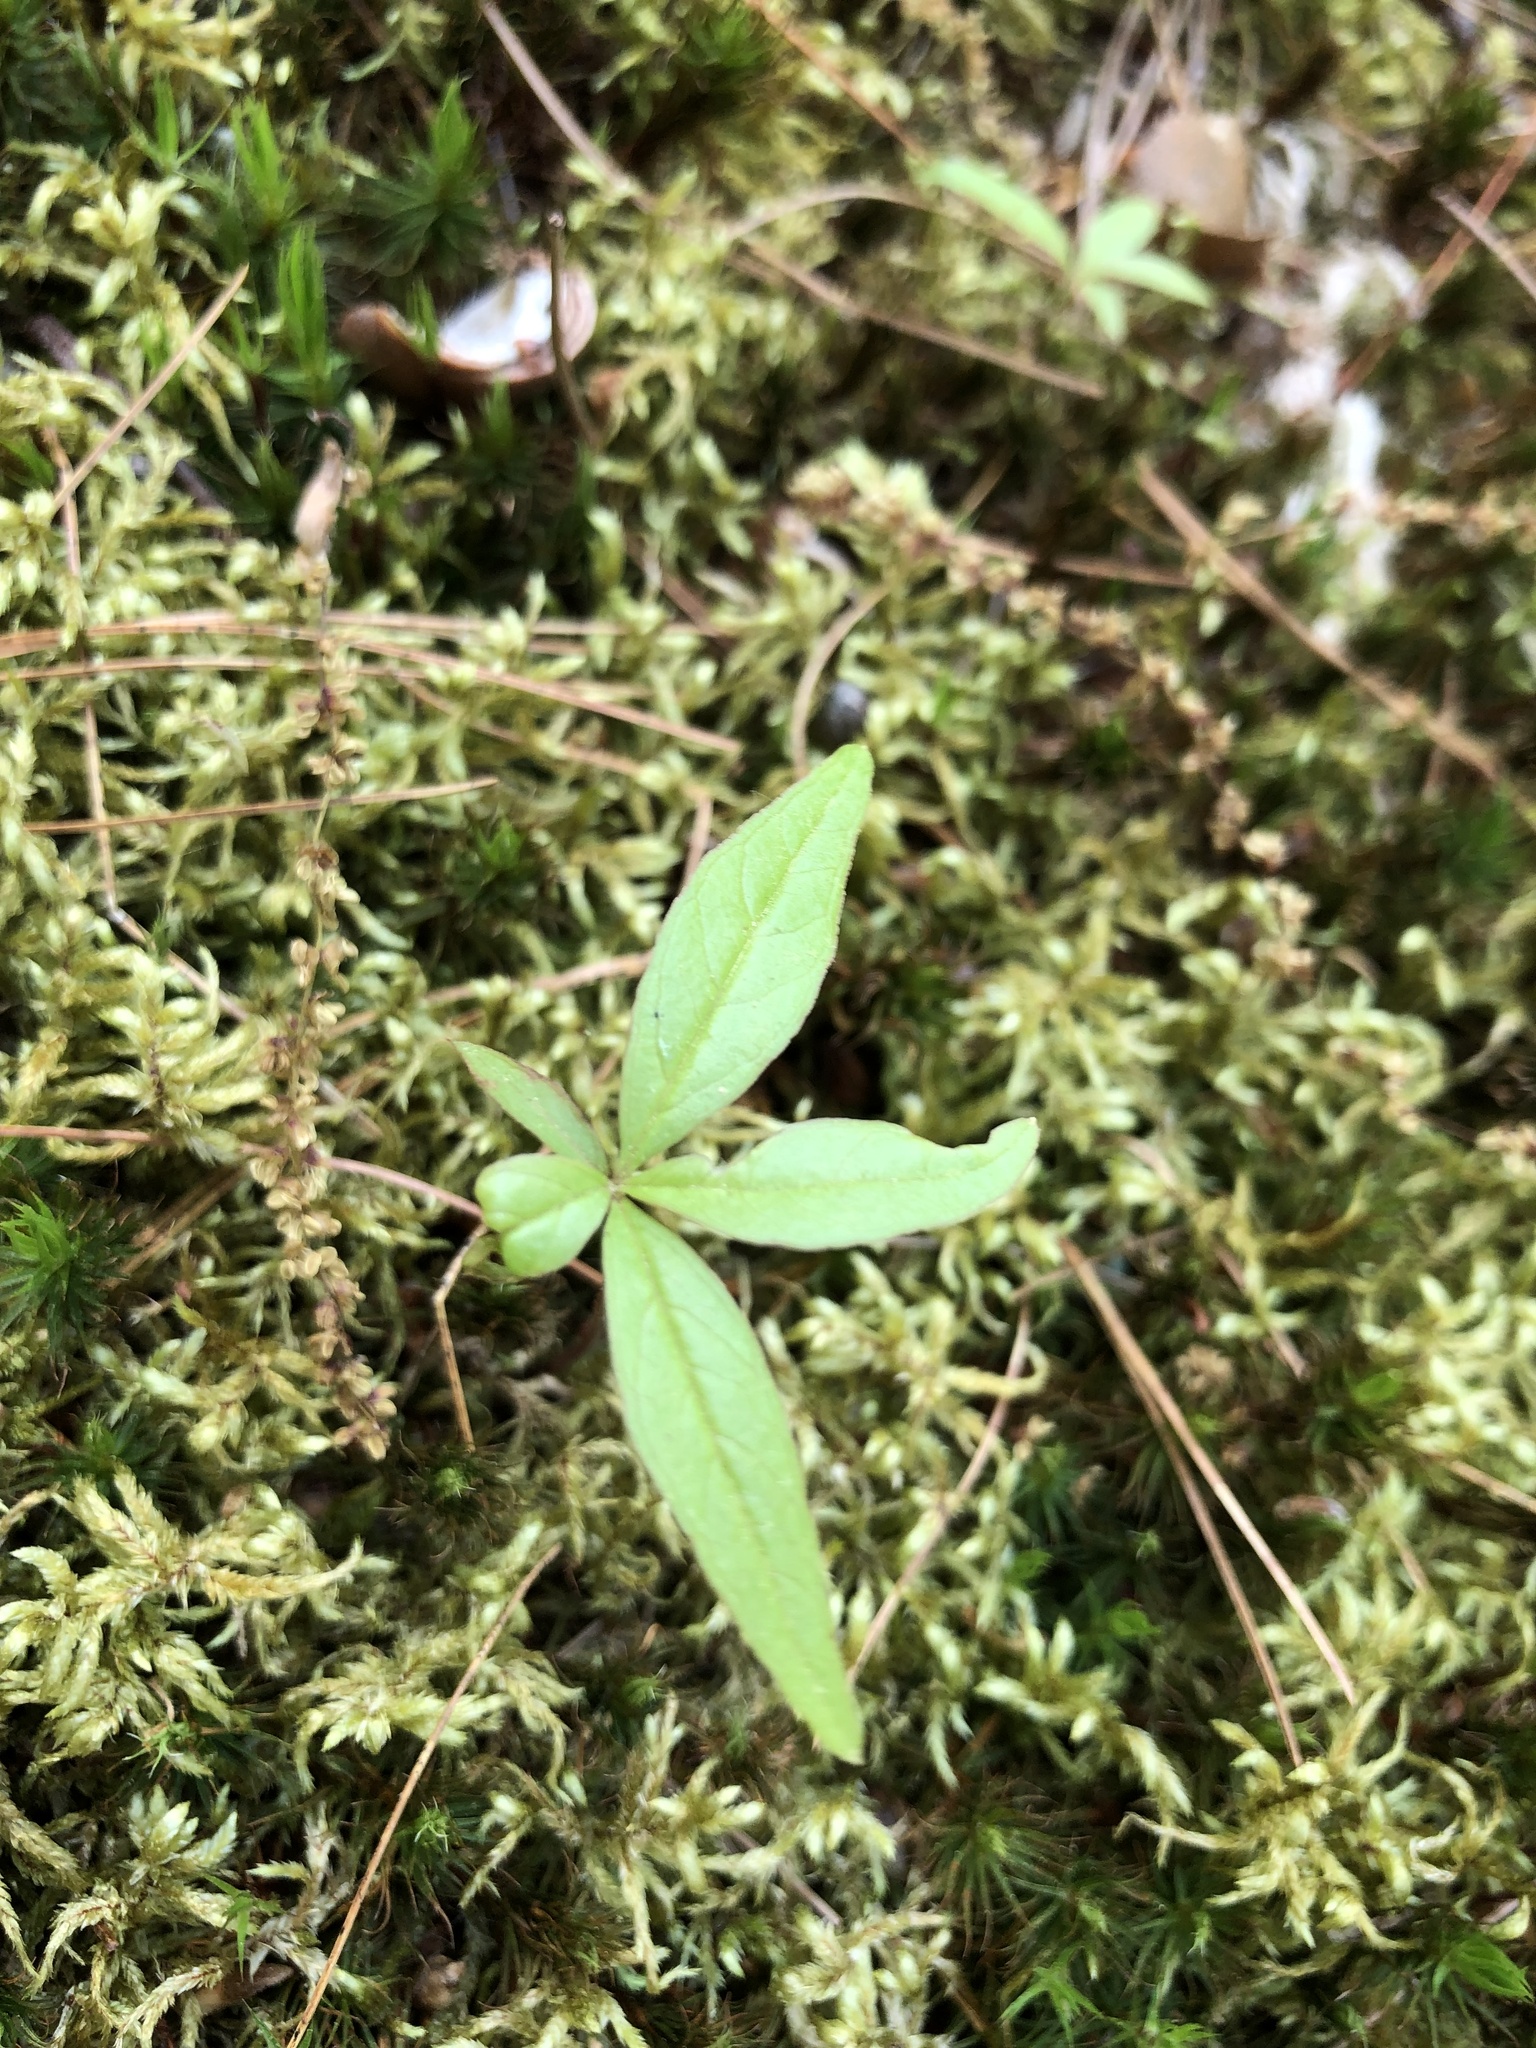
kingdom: Plantae
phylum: Tracheophyta
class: Magnoliopsida
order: Ericales
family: Primulaceae
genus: Lysimachia
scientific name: Lysimachia borealis
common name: American starflower
